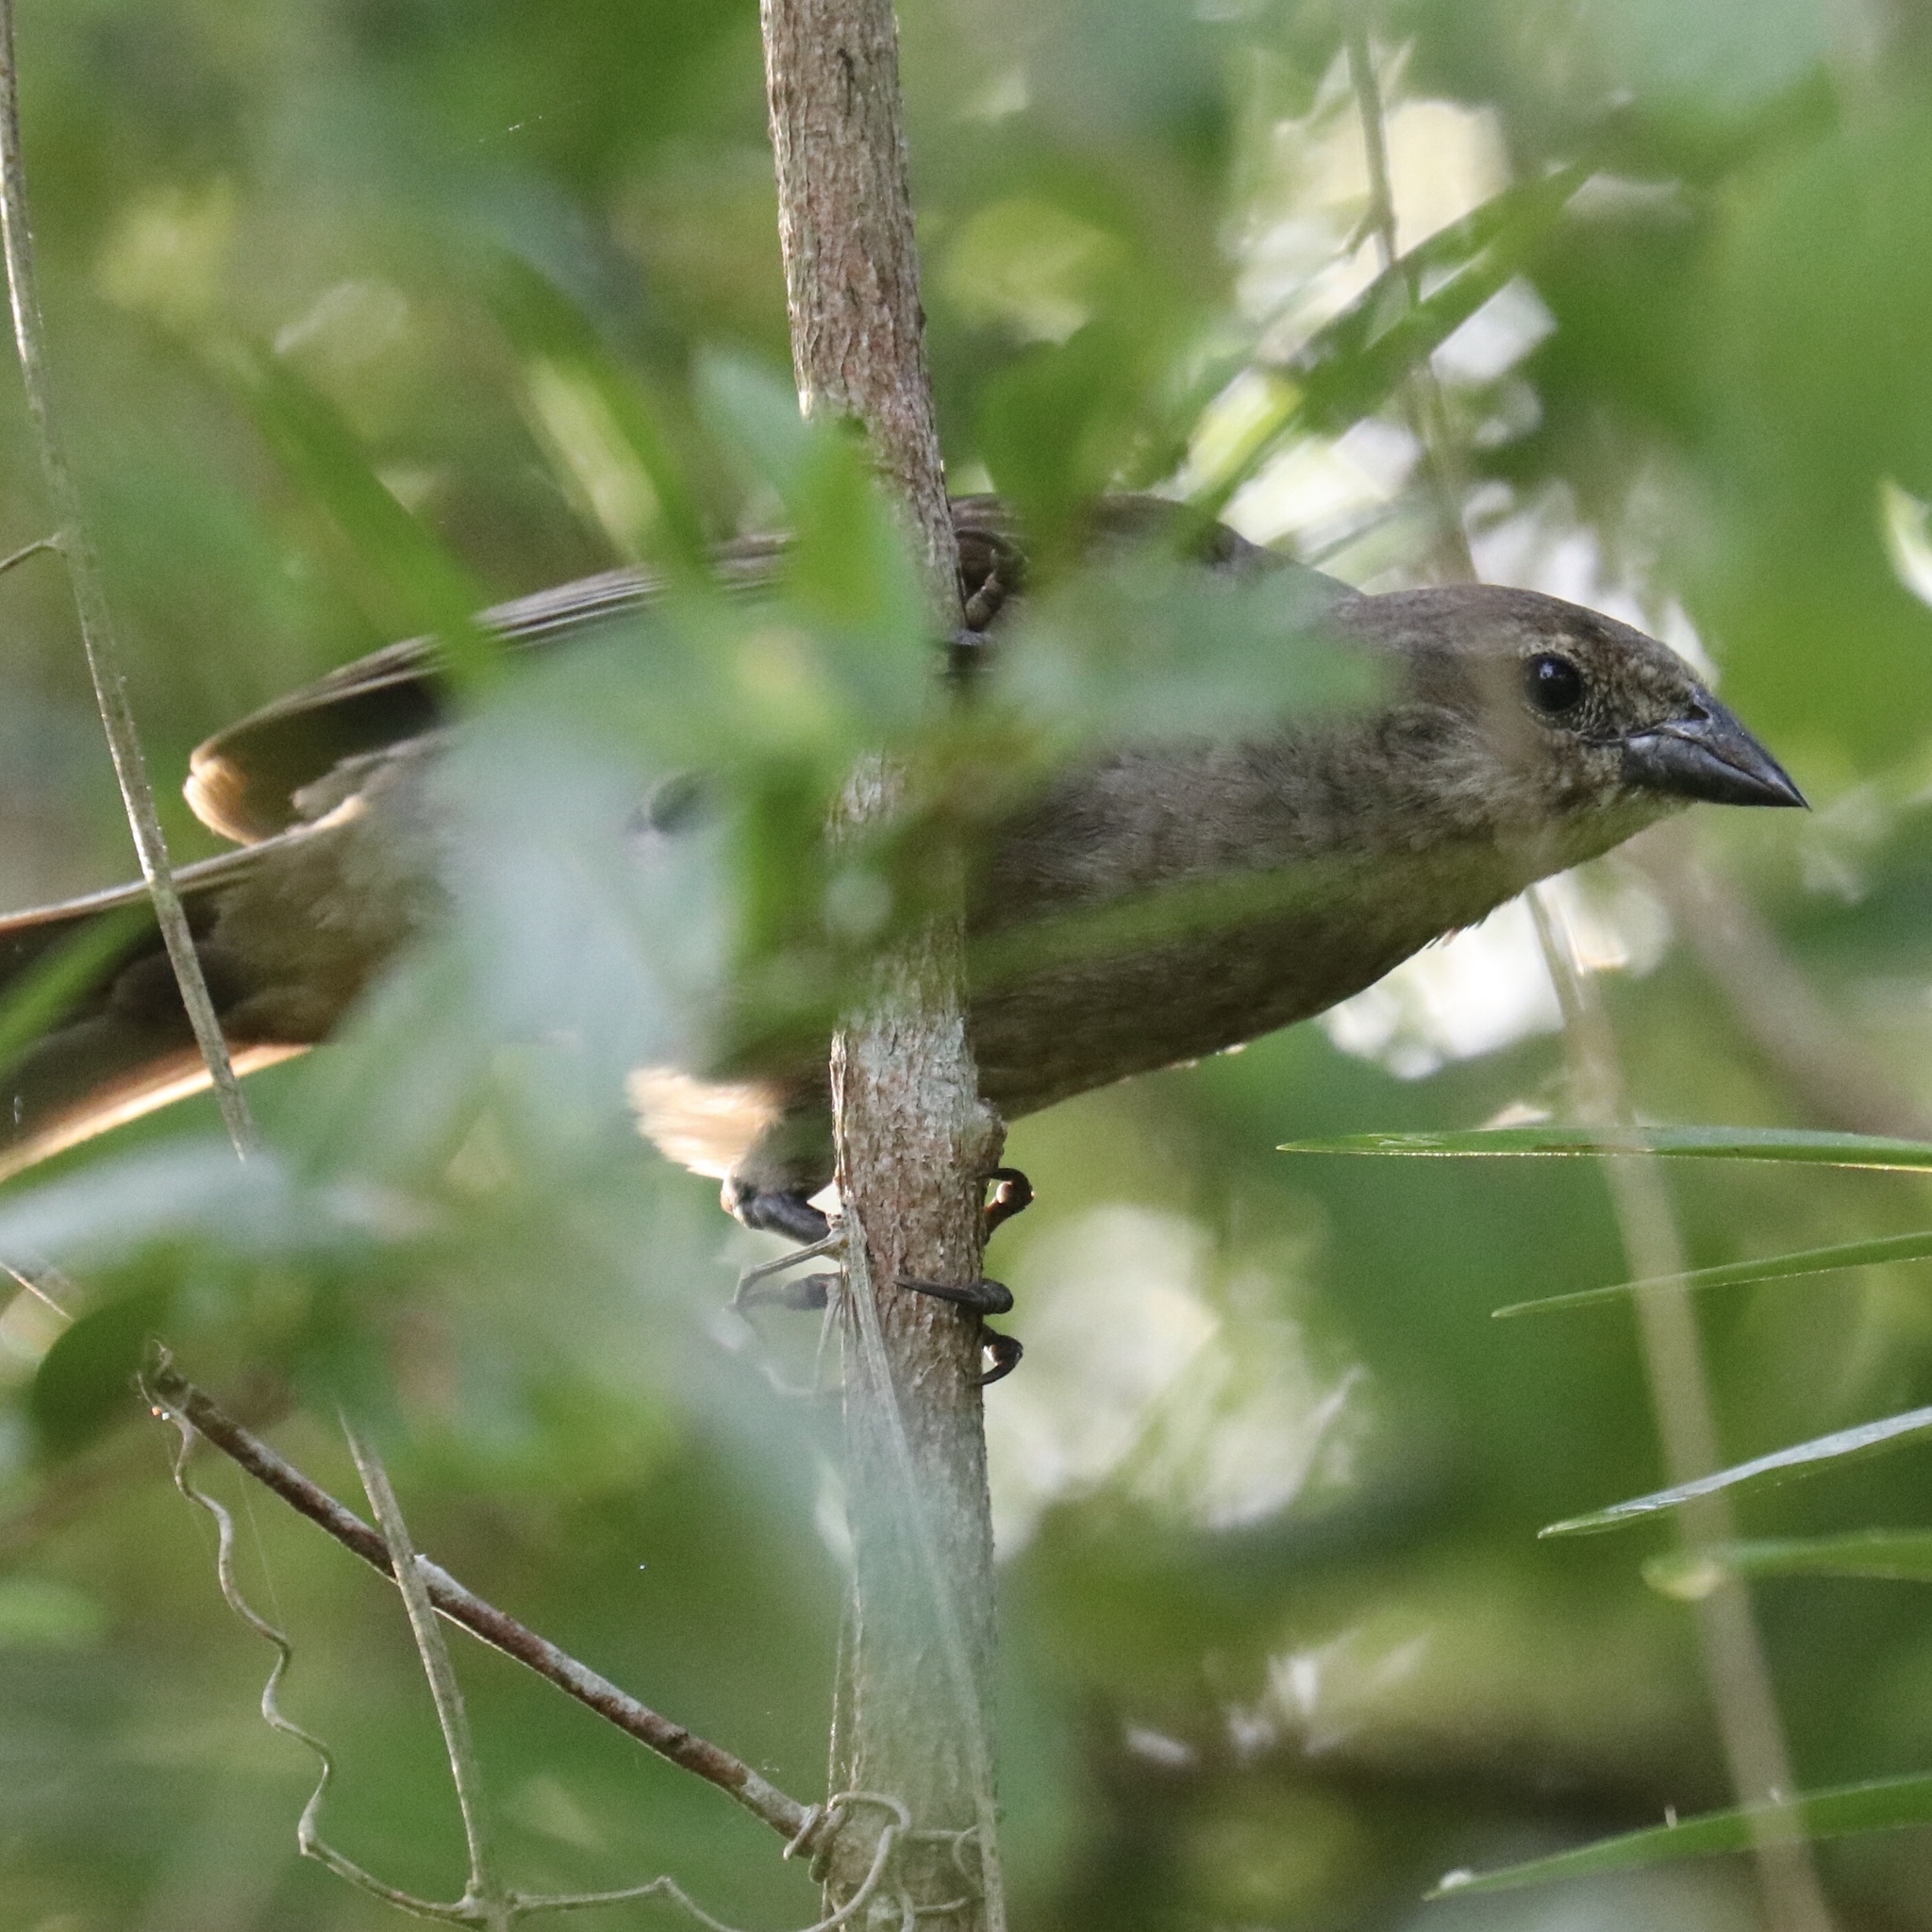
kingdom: Animalia
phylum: Chordata
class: Aves
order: Passeriformes
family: Icteridae
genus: Molothrus
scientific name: Molothrus bonariensis
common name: Shiny cowbird
